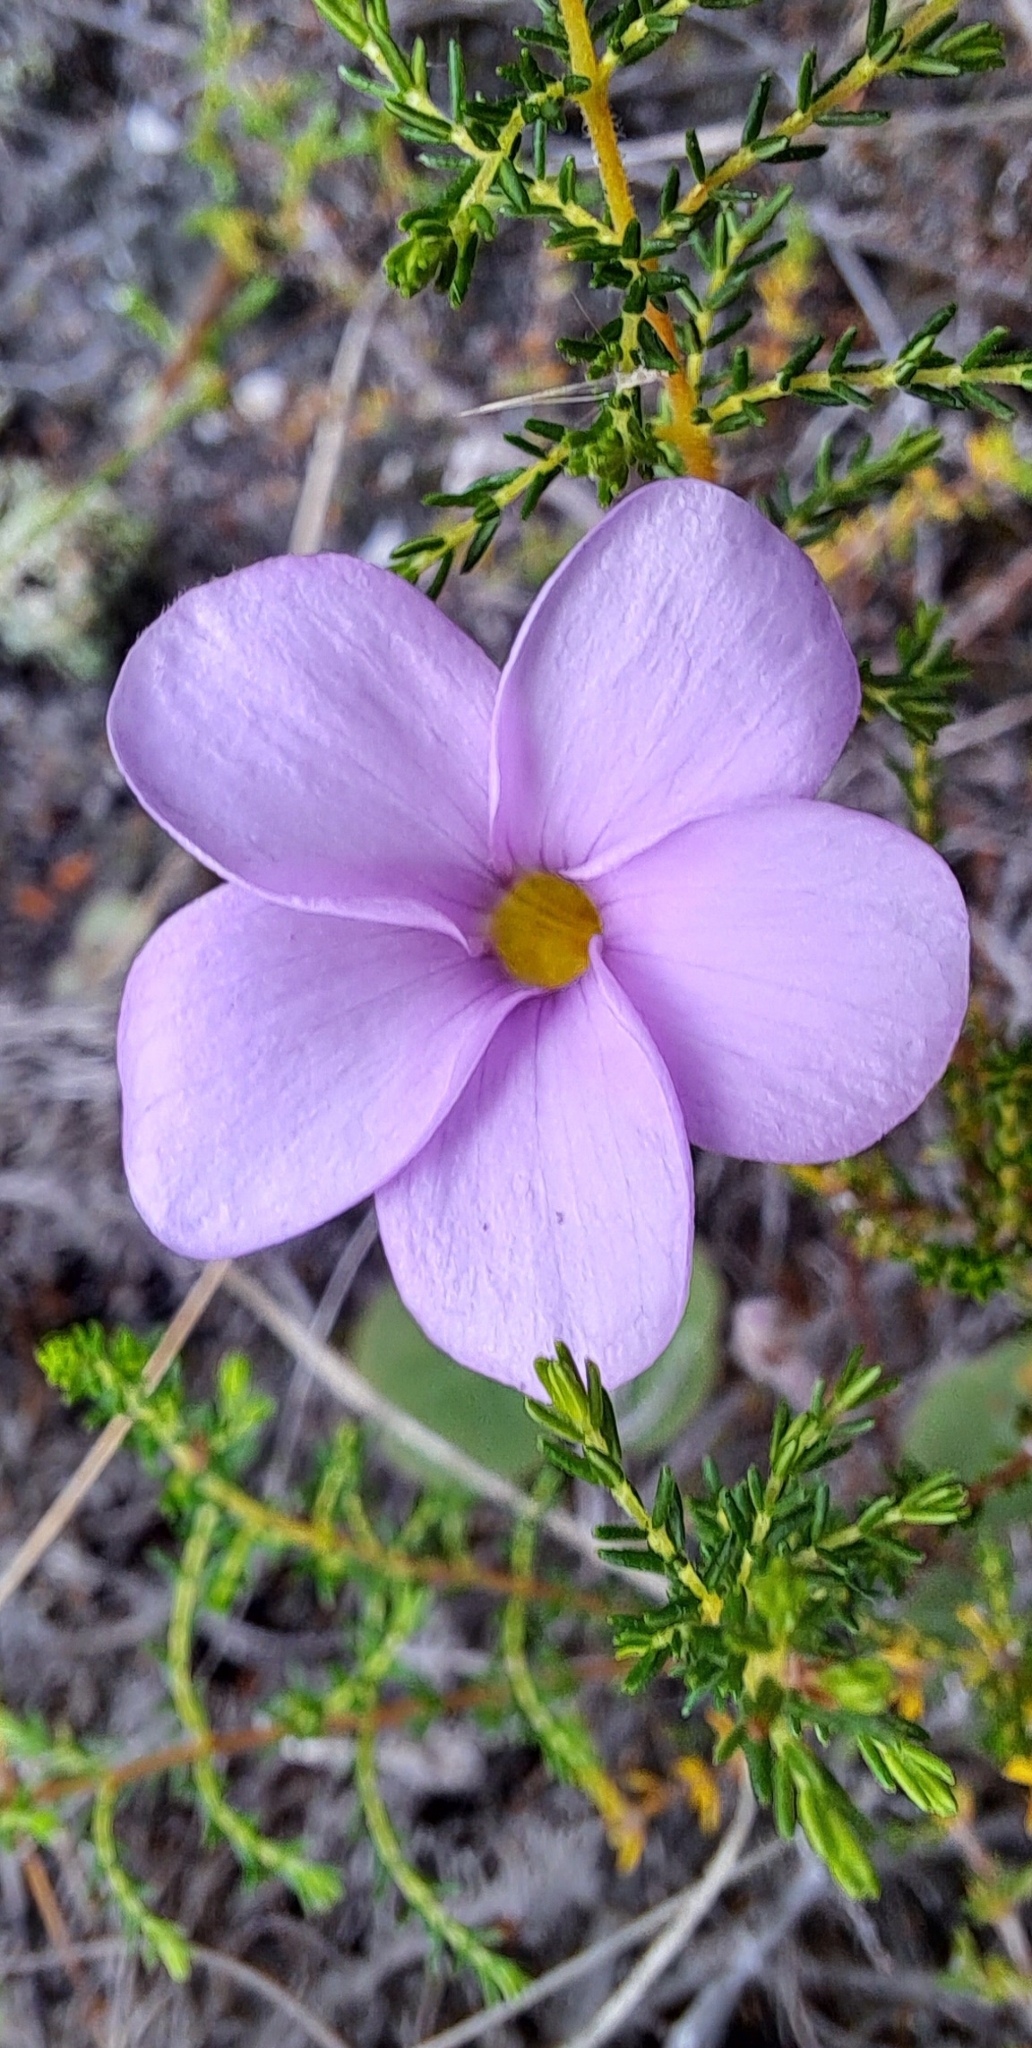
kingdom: Plantae
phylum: Tracheophyta
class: Magnoliopsida
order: Oxalidales
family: Oxalidaceae
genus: Oxalis
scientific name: Oxalis
